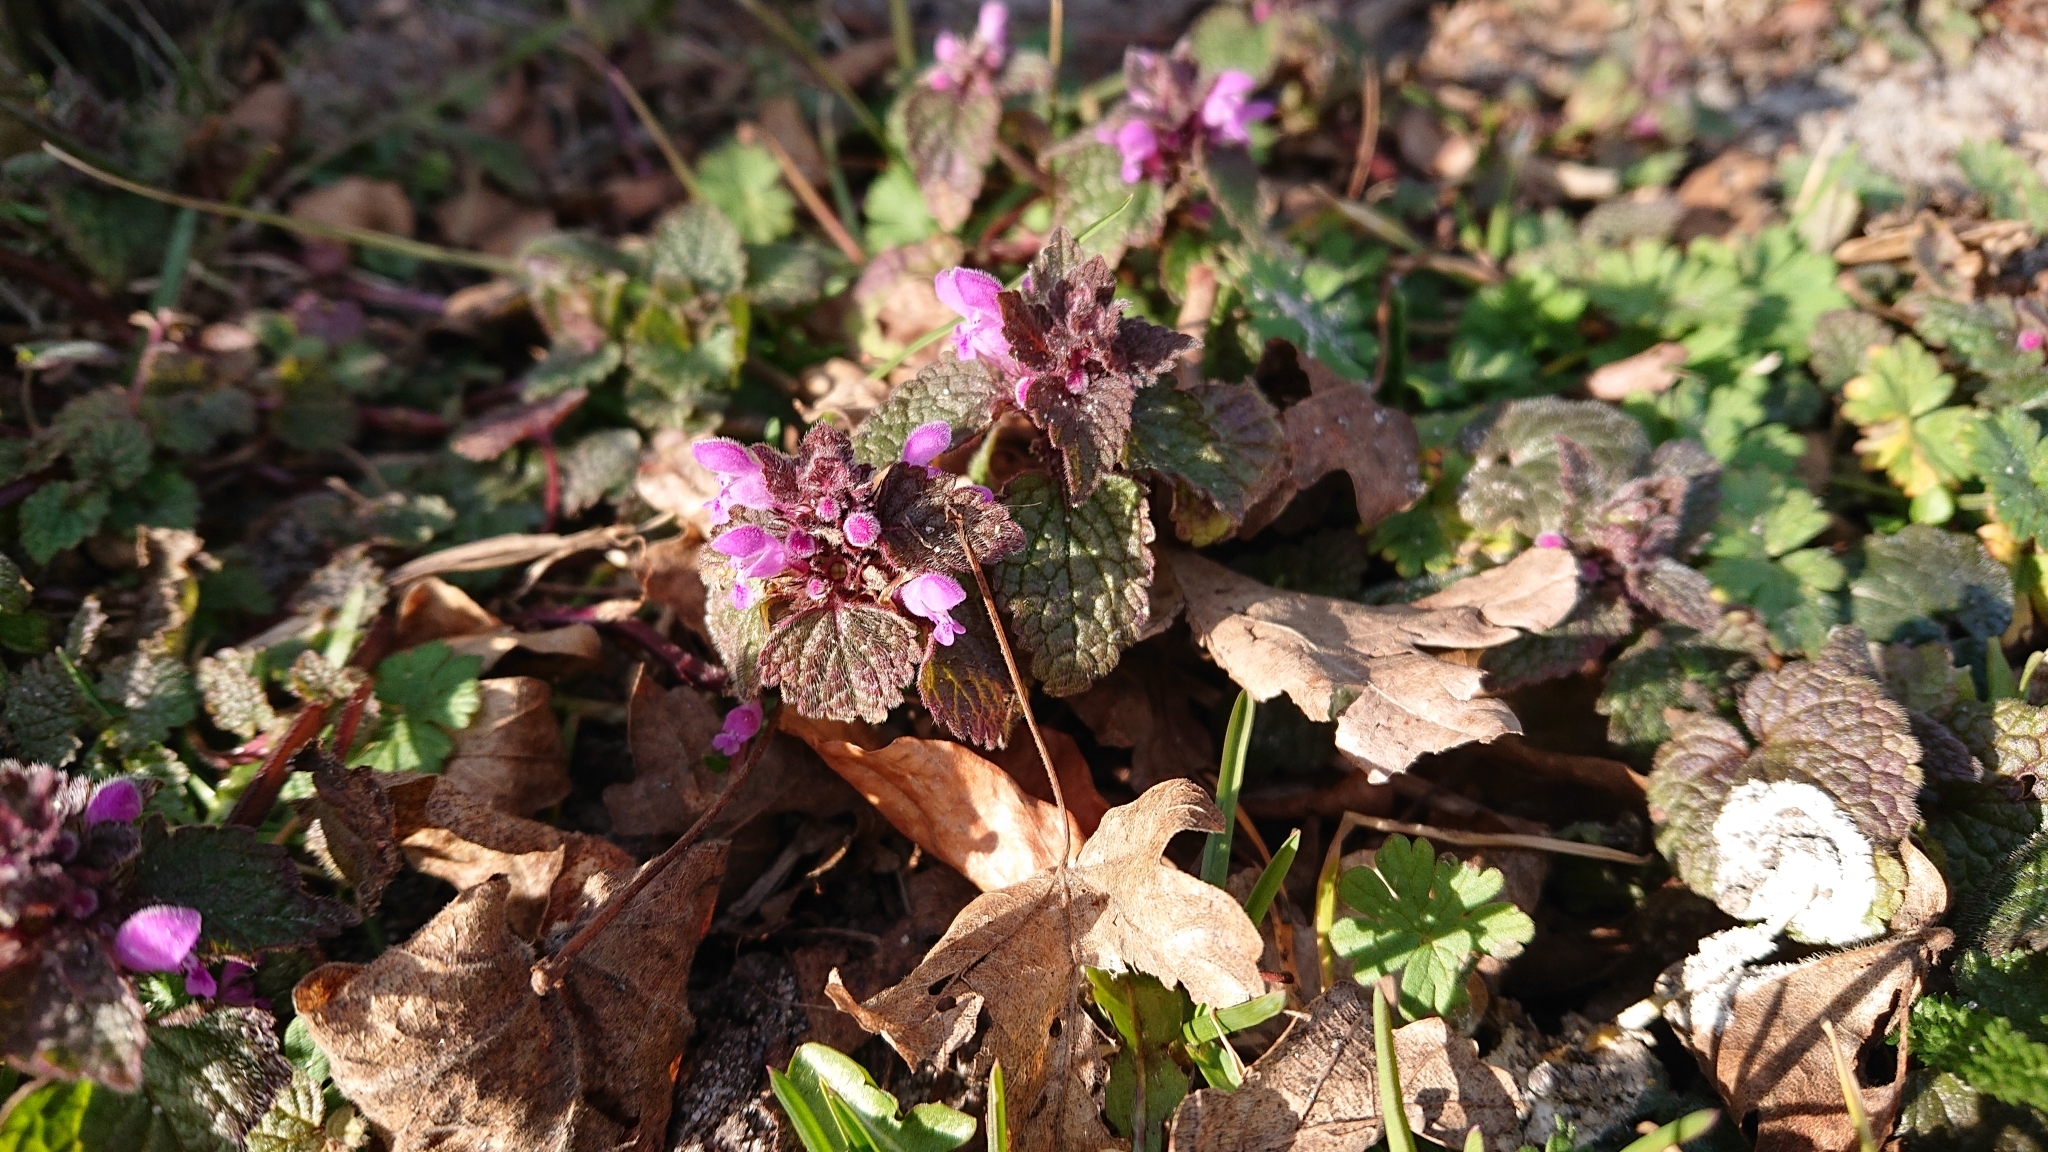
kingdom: Plantae
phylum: Tracheophyta
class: Magnoliopsida
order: Lamiales
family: Lamiaceae
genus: Lamium
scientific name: Lamium purpureum
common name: Red dead-nettle
